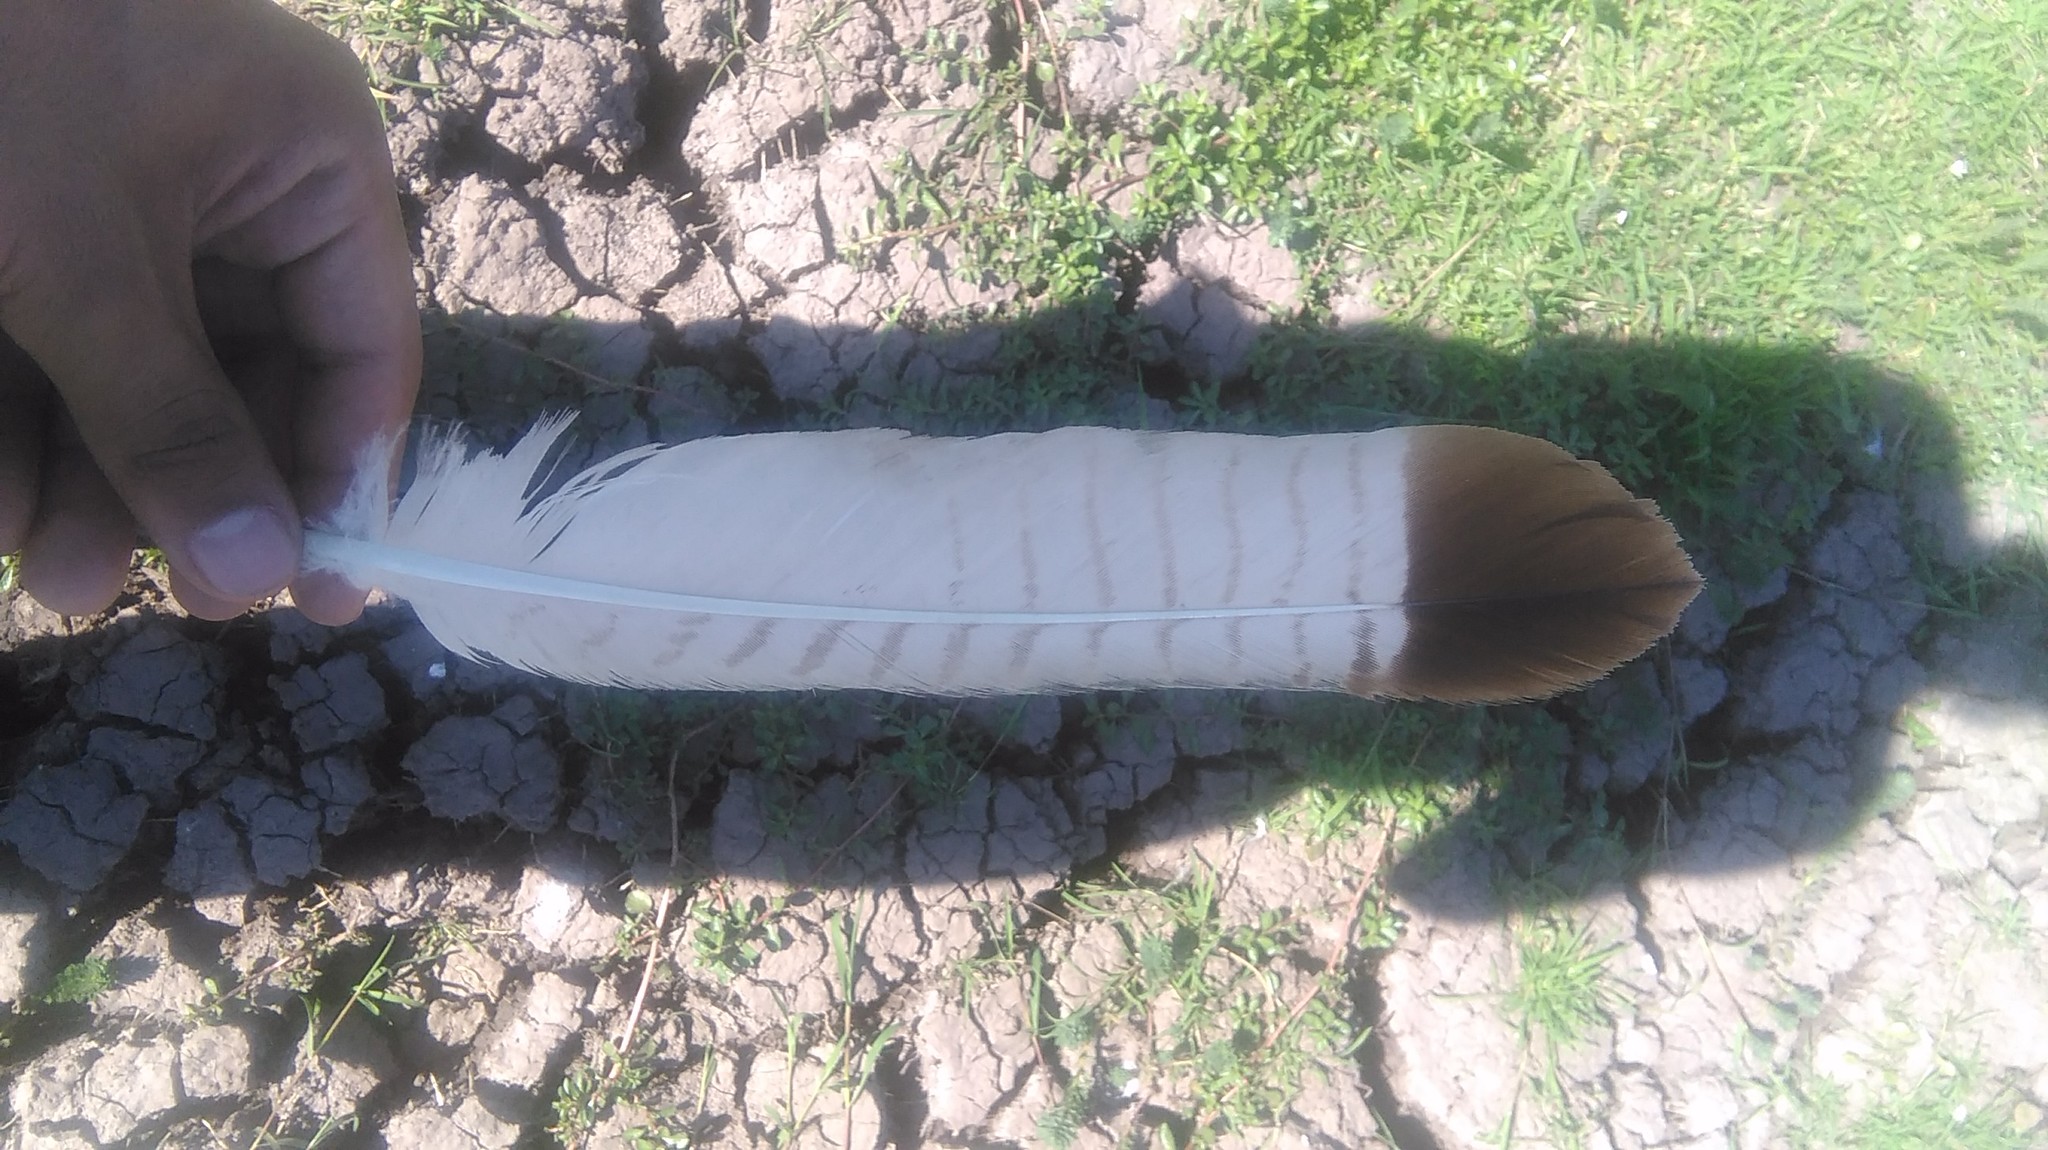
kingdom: Animalia
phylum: Chordata
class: Aves
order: Falconiformes
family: Falconidae
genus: Caracara
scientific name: Caracara plancus
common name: Southern caracara
